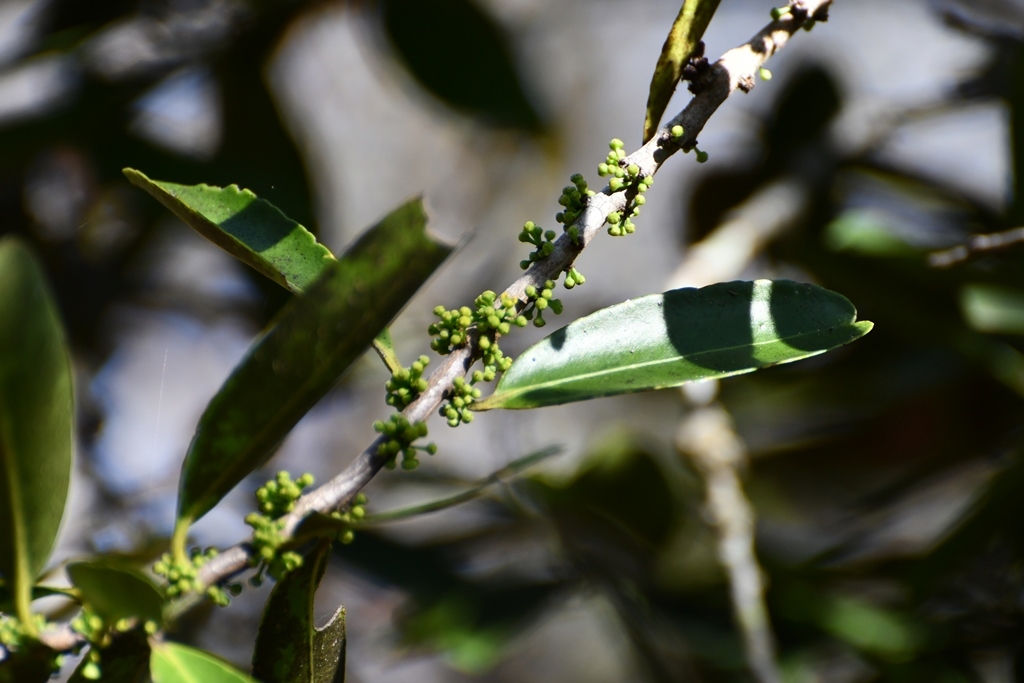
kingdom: Plantae
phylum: Tracheophyta
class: Magnoliopsida
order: Celastrales
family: Celastraceae
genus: Monteverdia
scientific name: Monteverdia stipitata
